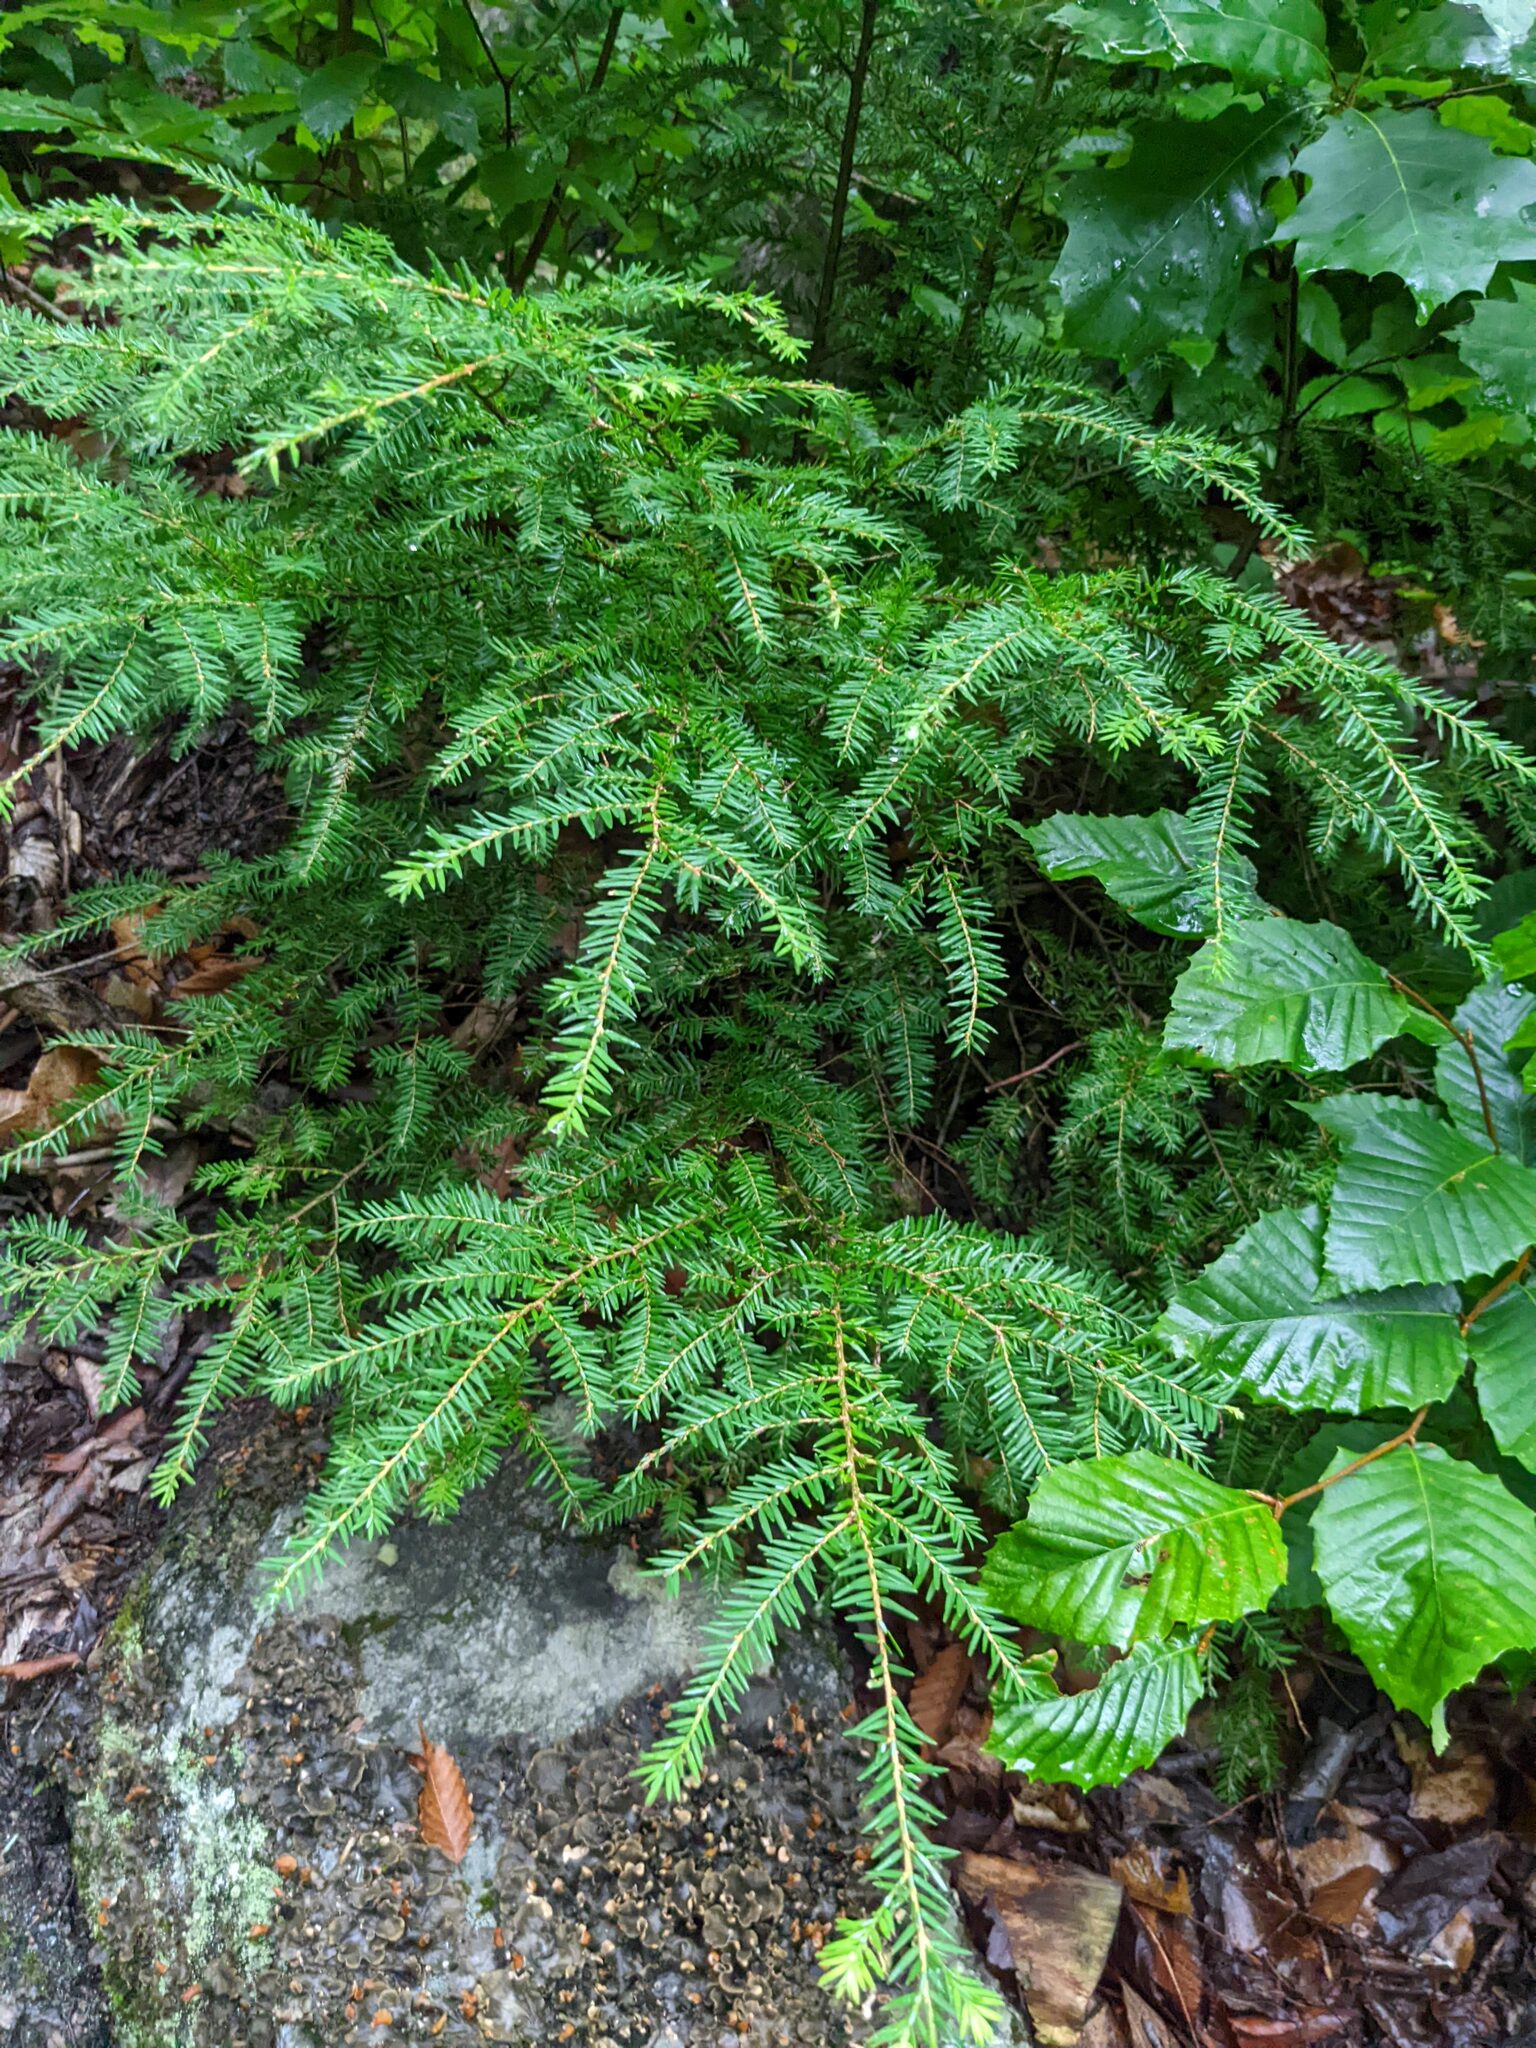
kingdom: Plantae
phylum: Tracheophyta
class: Pinopsida
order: Pinales
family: Pinaceae
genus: Tsuga
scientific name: Tsuga canadensis
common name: Eastern hemlock
